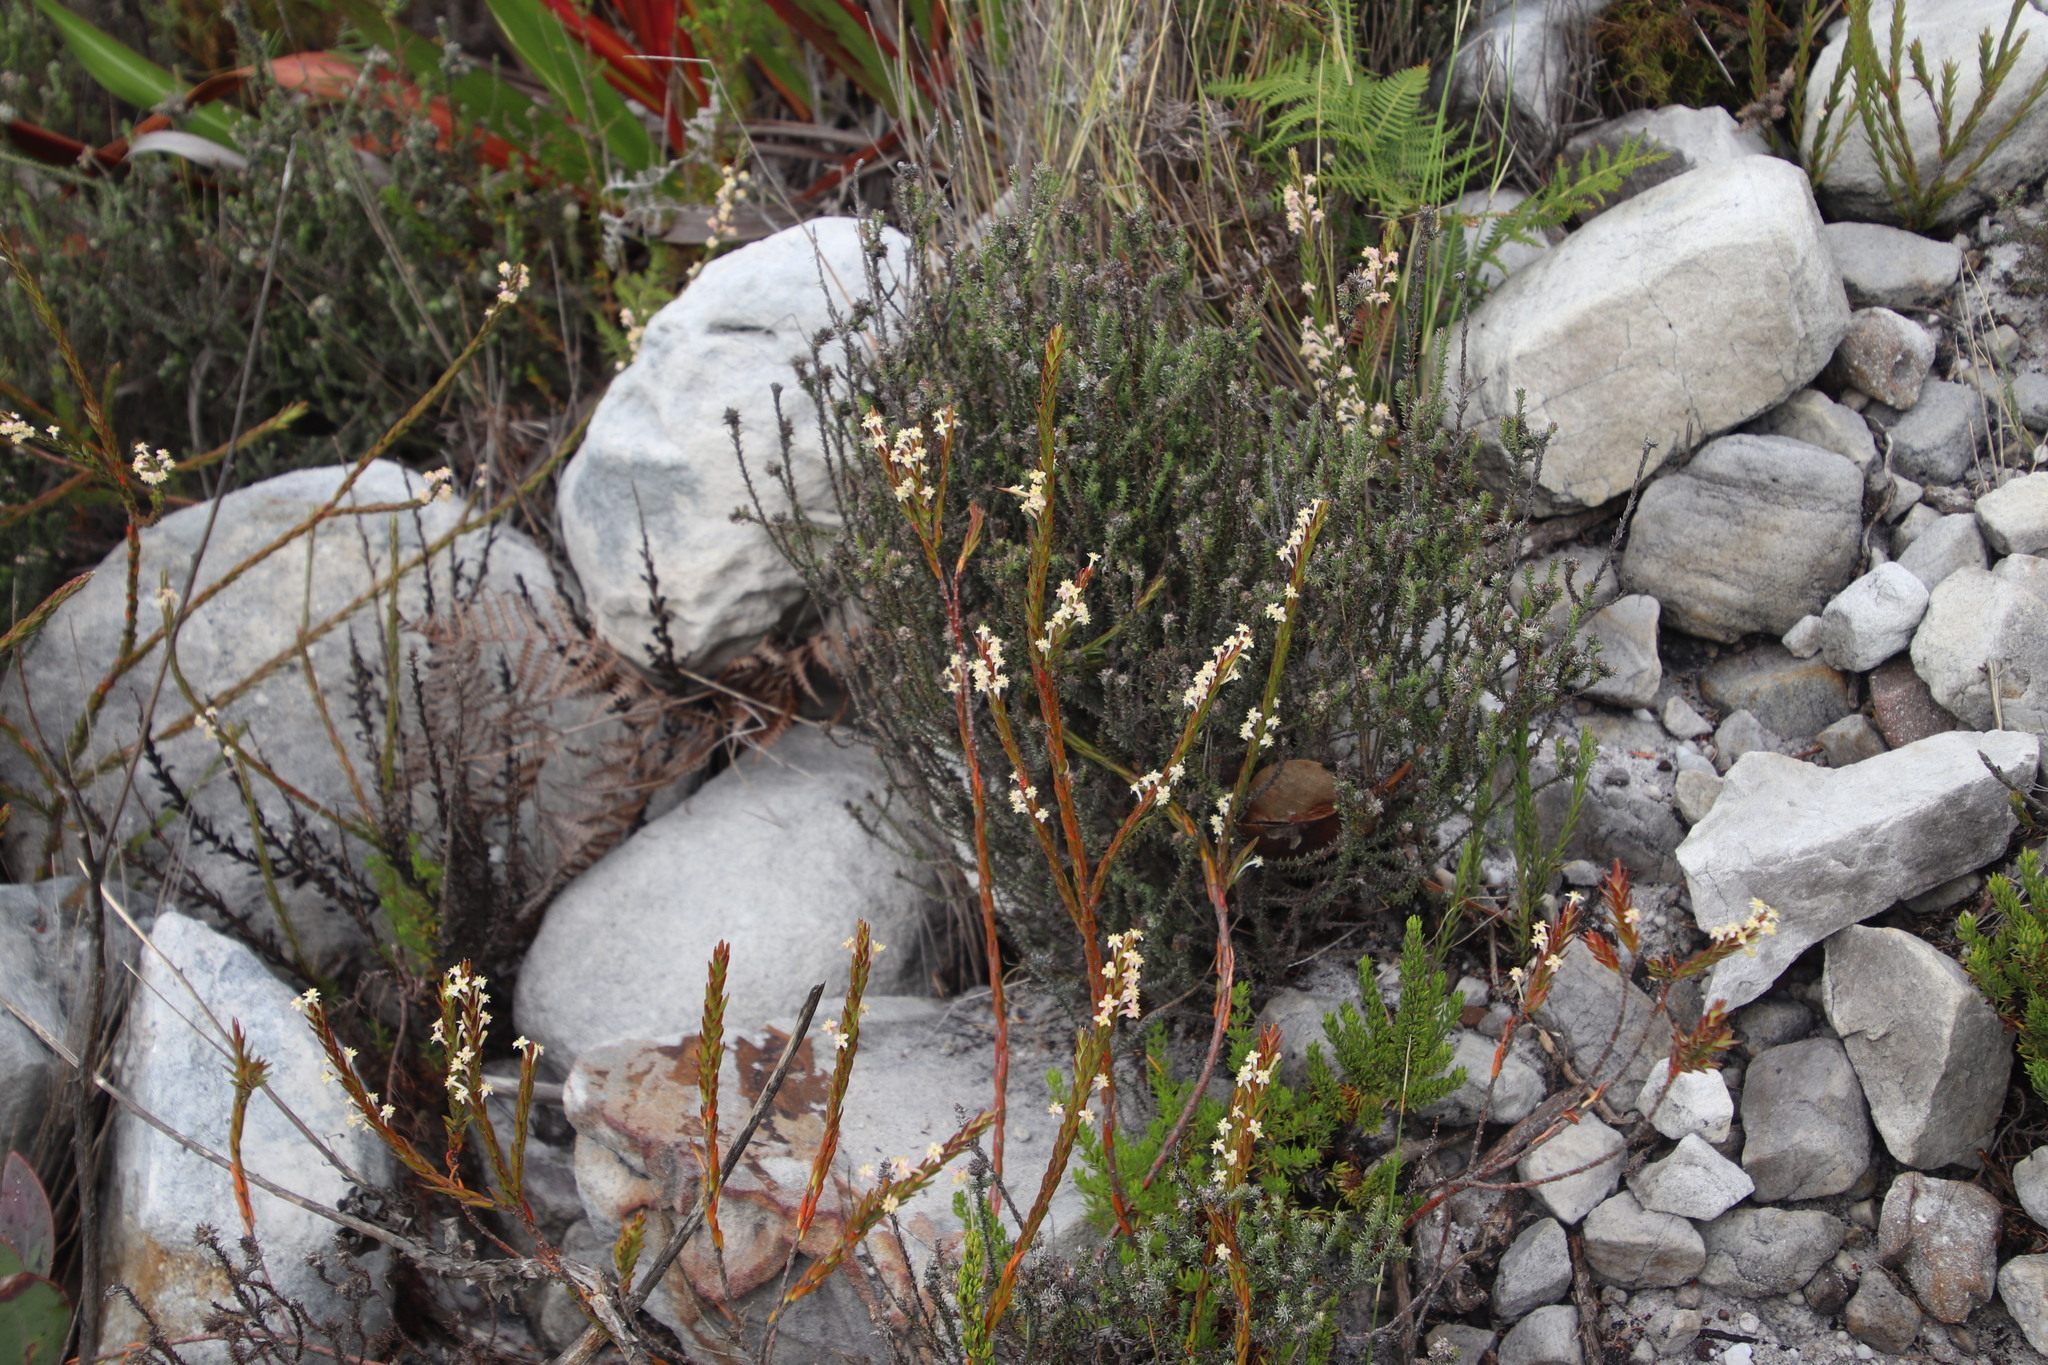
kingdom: Plantae
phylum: Tracheophyta
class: Magnoliopsida
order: Malvales
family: Thymelaeaceae
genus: Struthiola
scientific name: Struthiola ciliata
